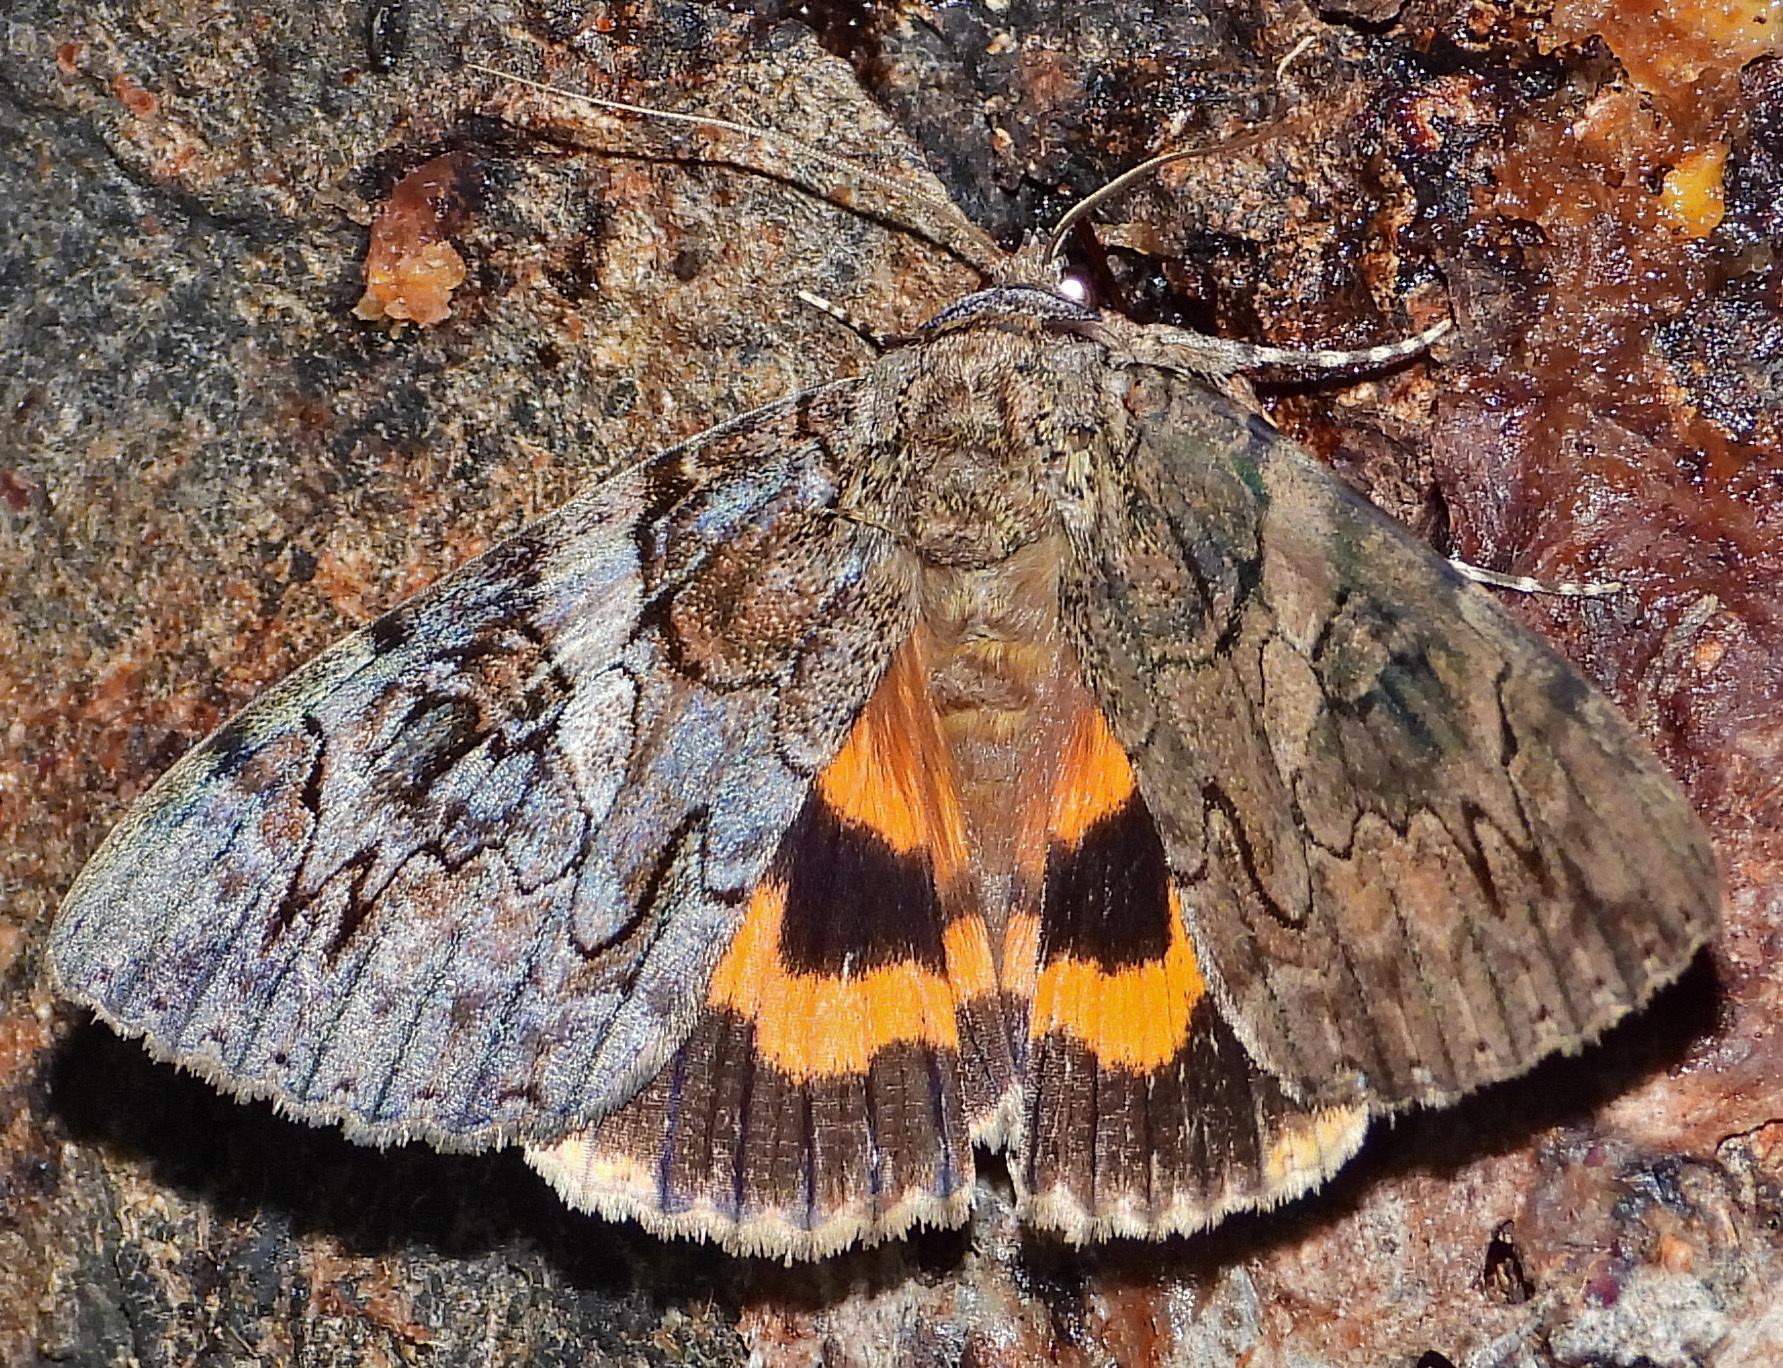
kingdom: Animalia
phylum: Arthropoda
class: Insecta
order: Lepidoptera
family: Erebidae
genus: Catocala
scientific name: Catocala piatrix
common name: The penitent underwing
